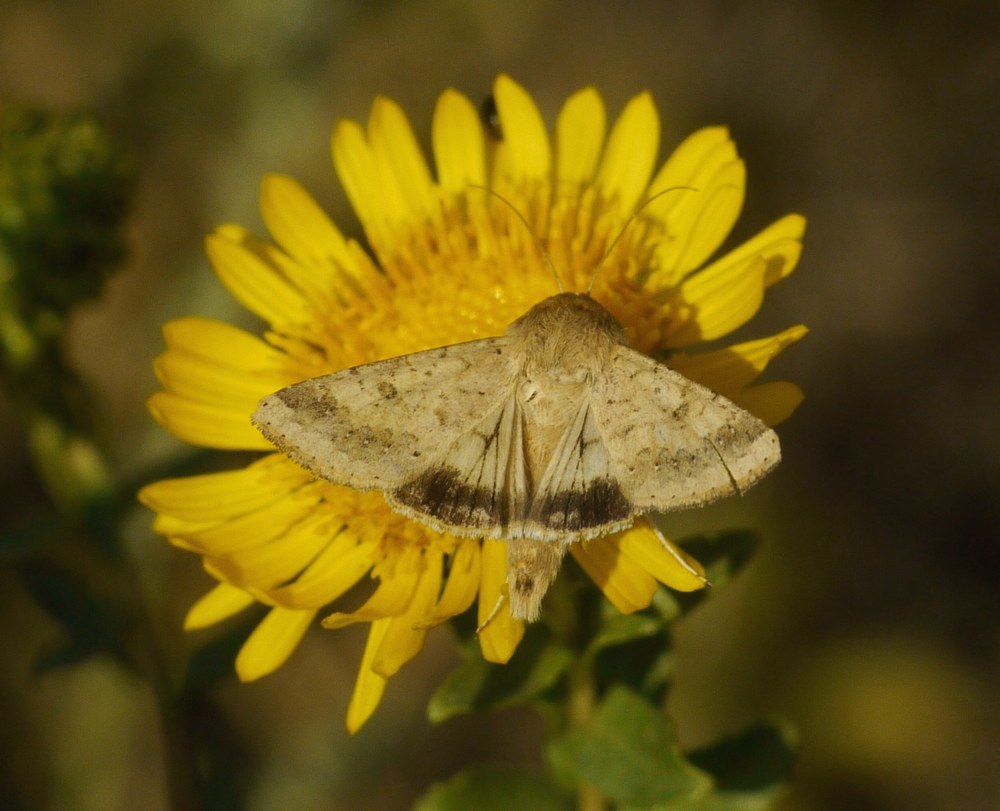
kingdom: Animalia
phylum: Arthropoda
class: Insecta
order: Lepidoptera
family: Noctuidae
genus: Helicoverpa
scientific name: Helicoverpa armigera
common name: Cotton bollworm
